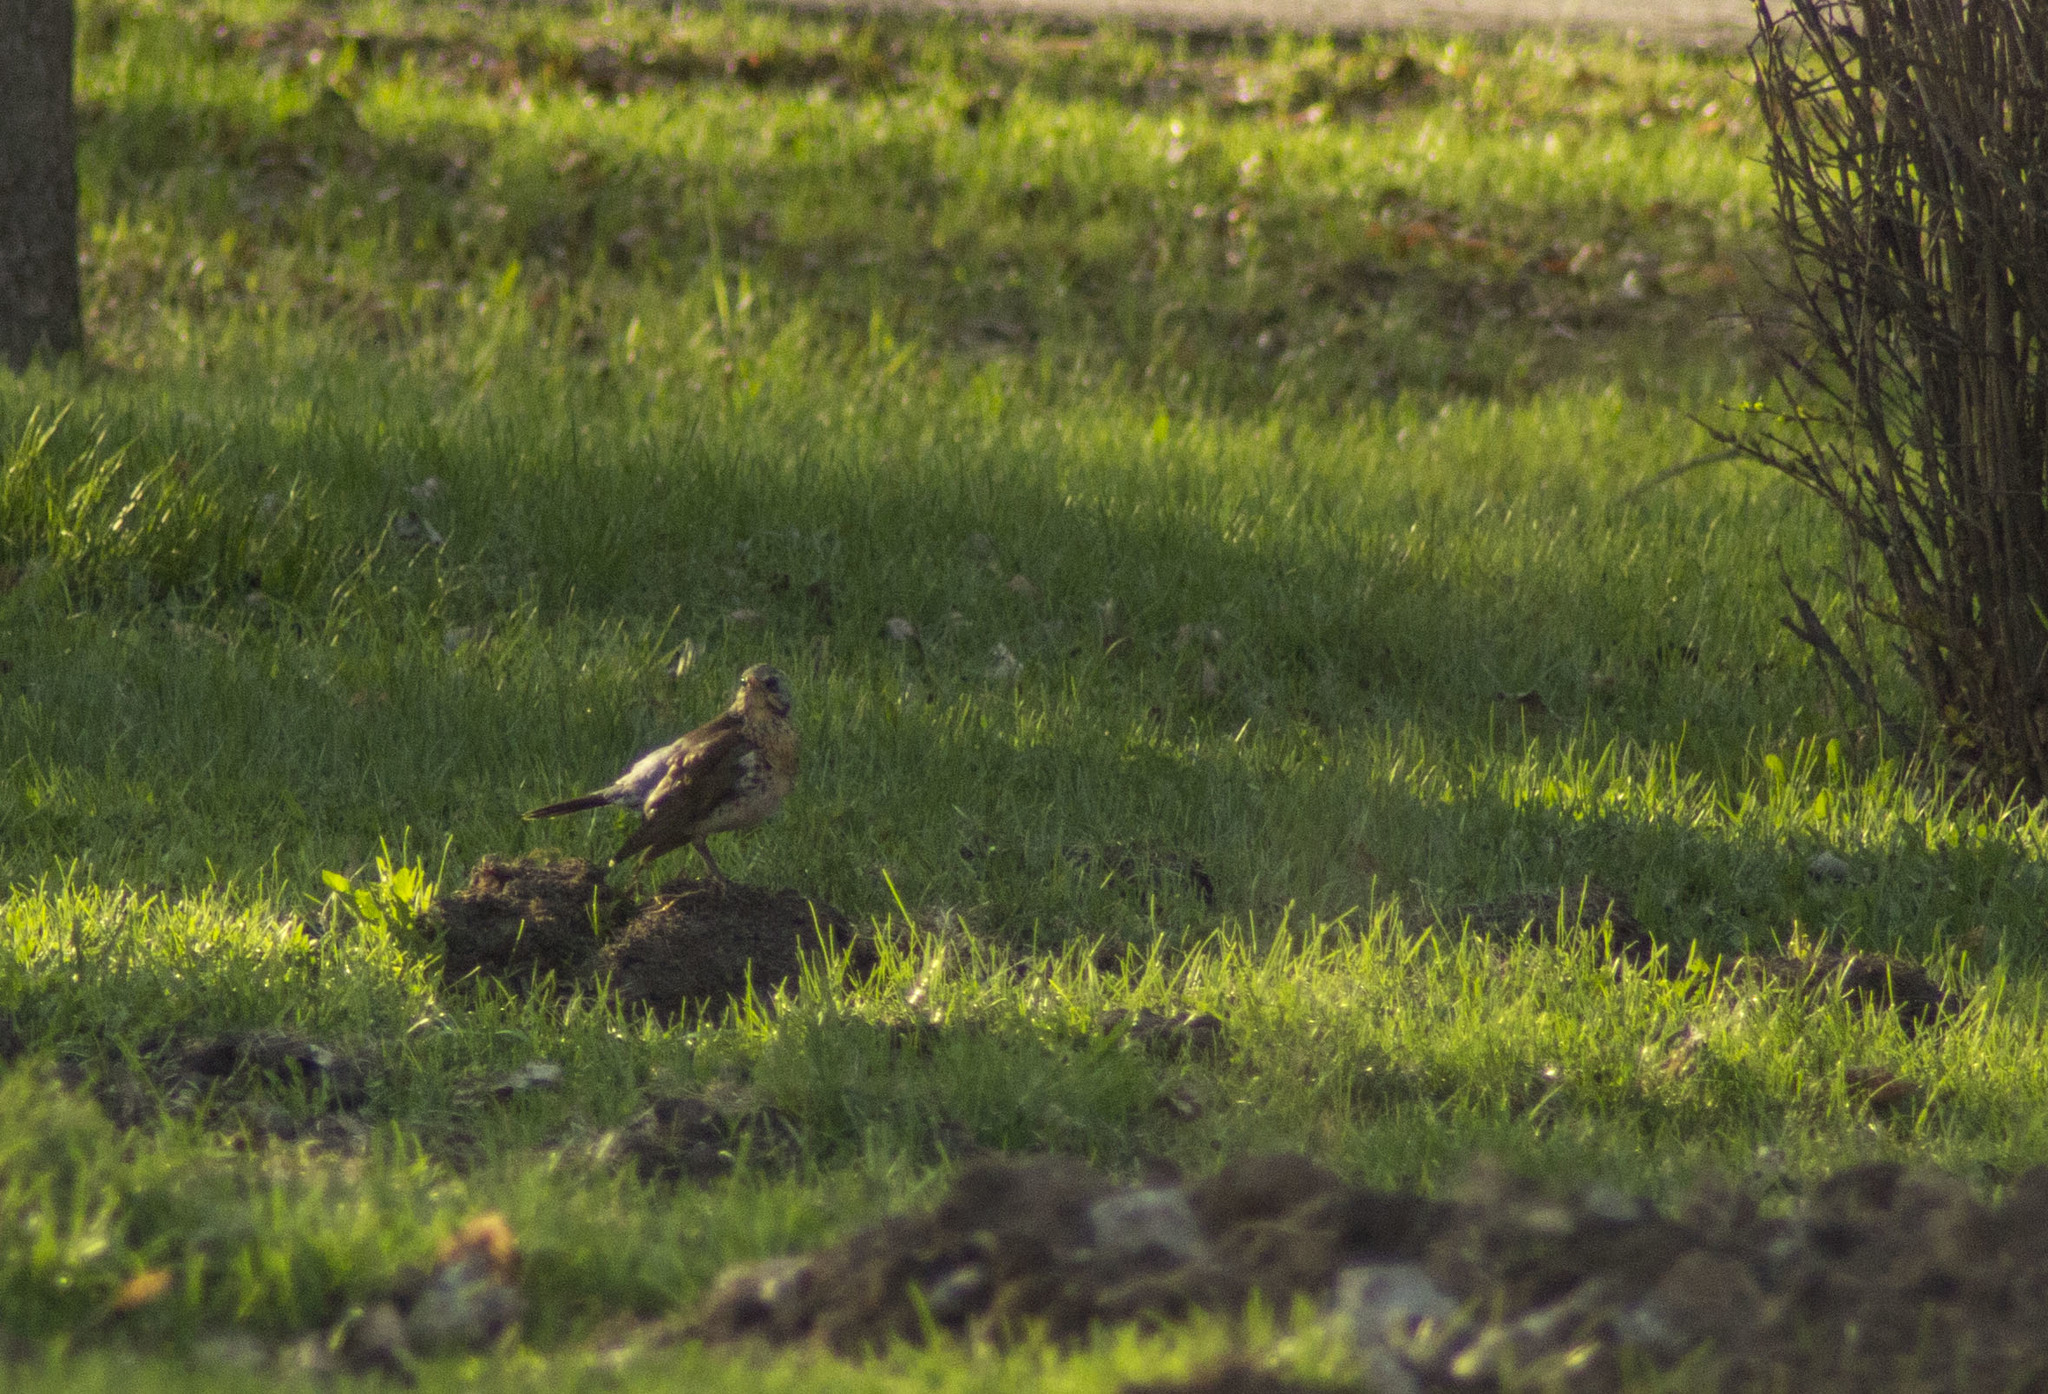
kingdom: Animalia
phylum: Chordata
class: Aves
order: Passeriformes
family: Turdidae
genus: Turdus
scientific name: Turdus pilaris
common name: Fieldfare
